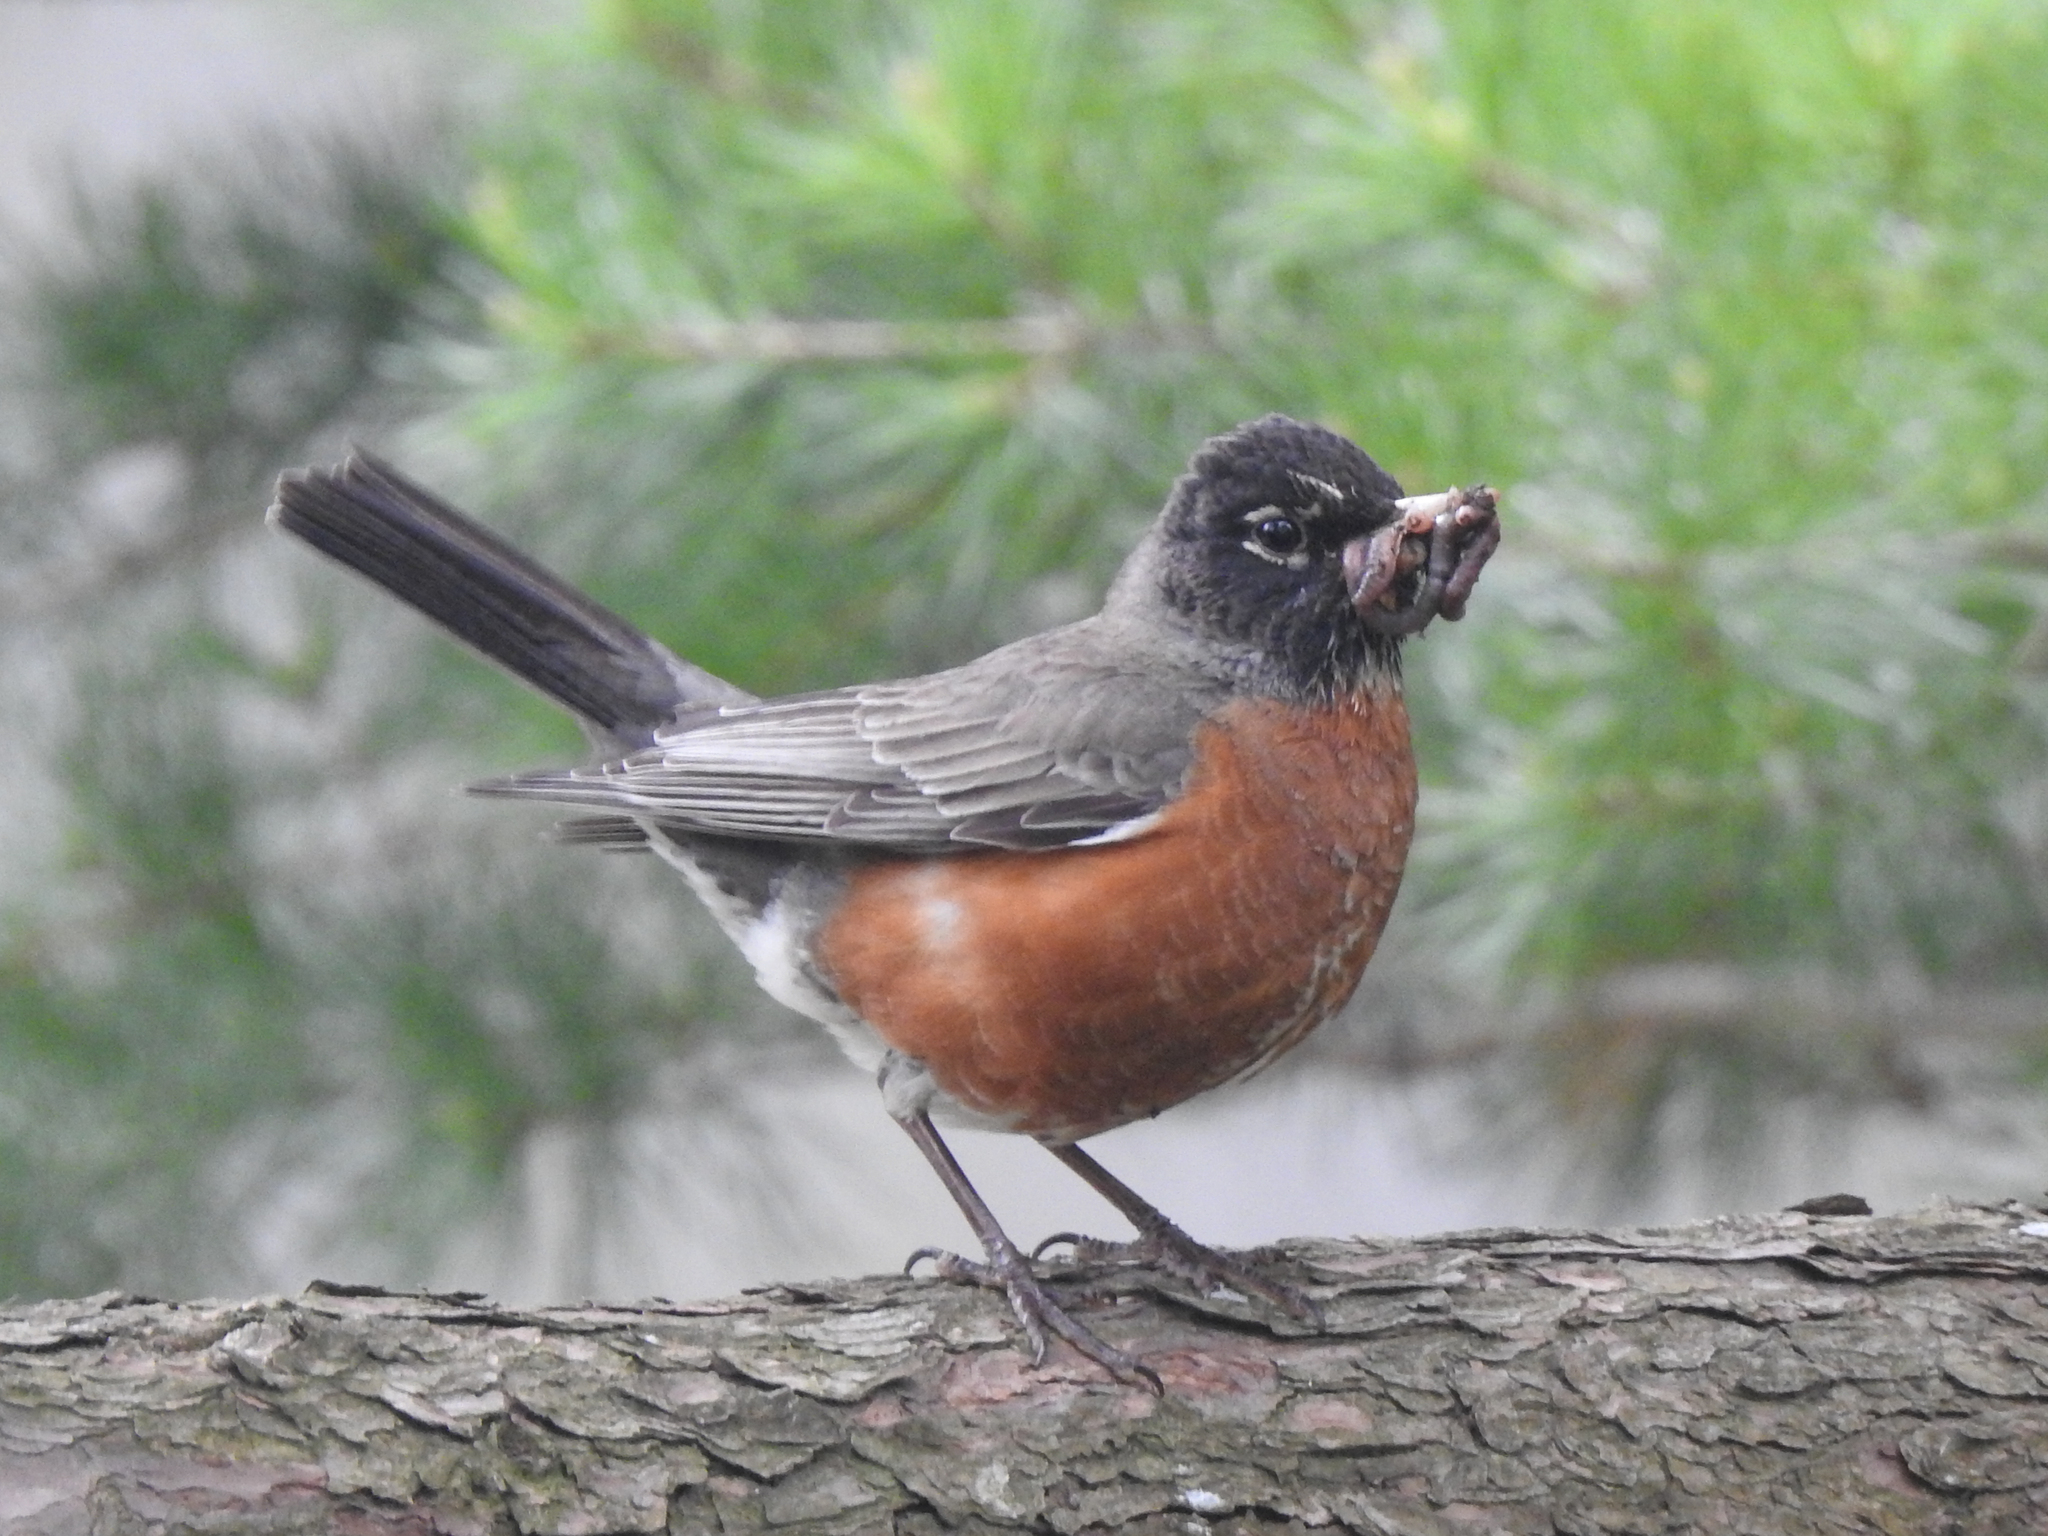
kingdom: Animalia
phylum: Chordata
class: Aves
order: Passeriformes
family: Turdidae
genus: Turdus
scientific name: Turdus migratorius
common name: American robin
